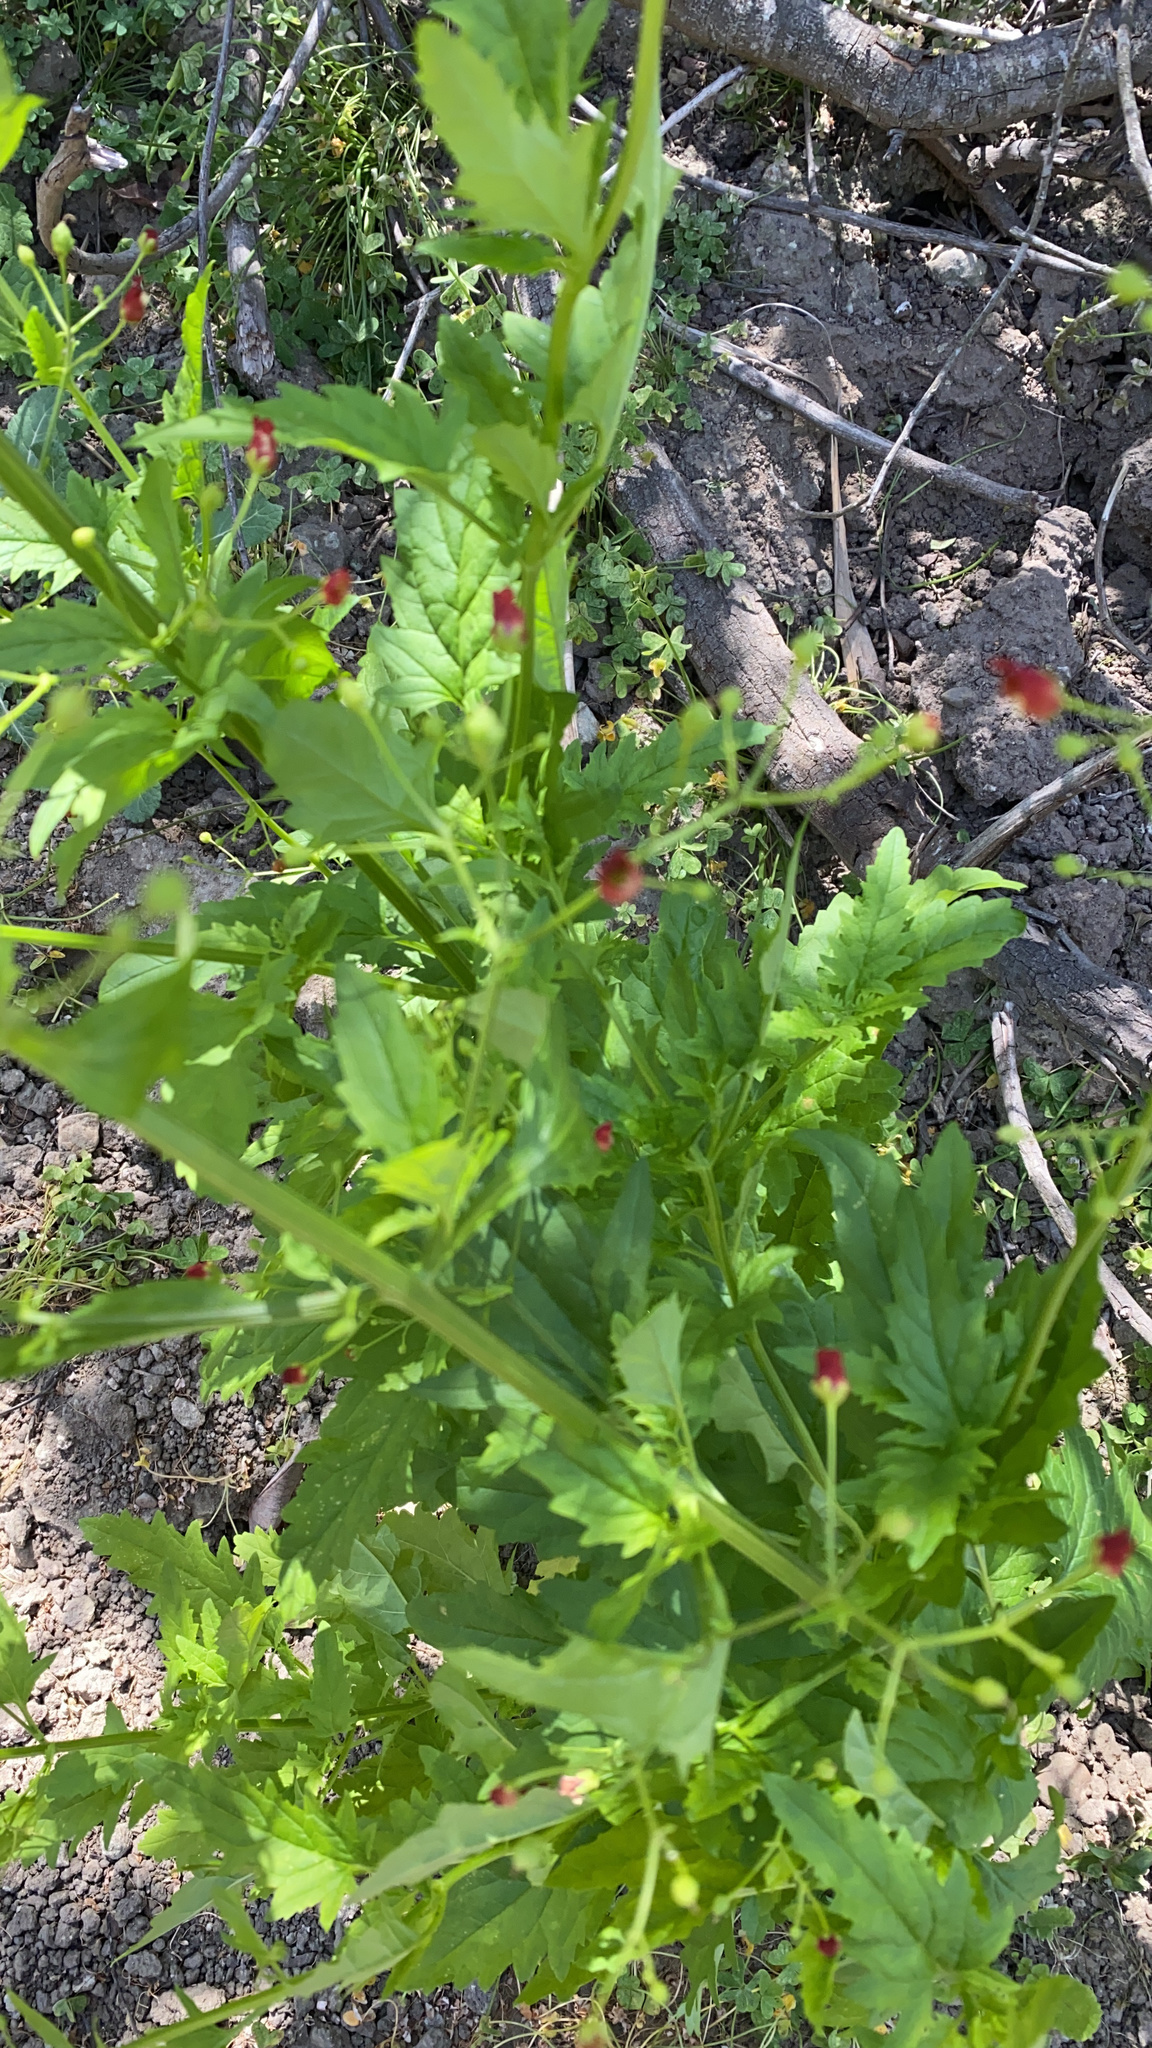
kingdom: Plantae
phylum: Tracheophyta
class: Magnoliopsida
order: Lamiales
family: Scrophulariaceae
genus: Scrophularia
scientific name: Scrophularia californica
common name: California figwort
